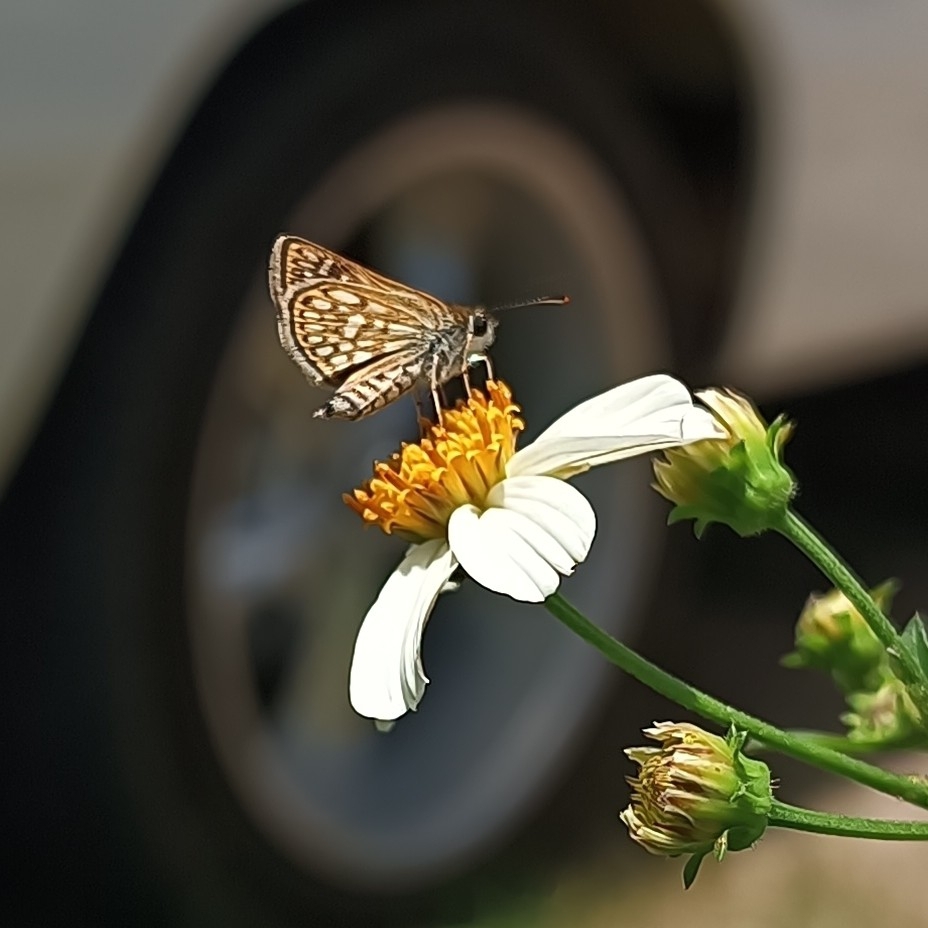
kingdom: Animalia
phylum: Arthropoda
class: Insecta
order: Lepidoptera
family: Hesperiidae
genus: Dardarina
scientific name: Dardarina dardaris
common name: Dardaris skipperling
